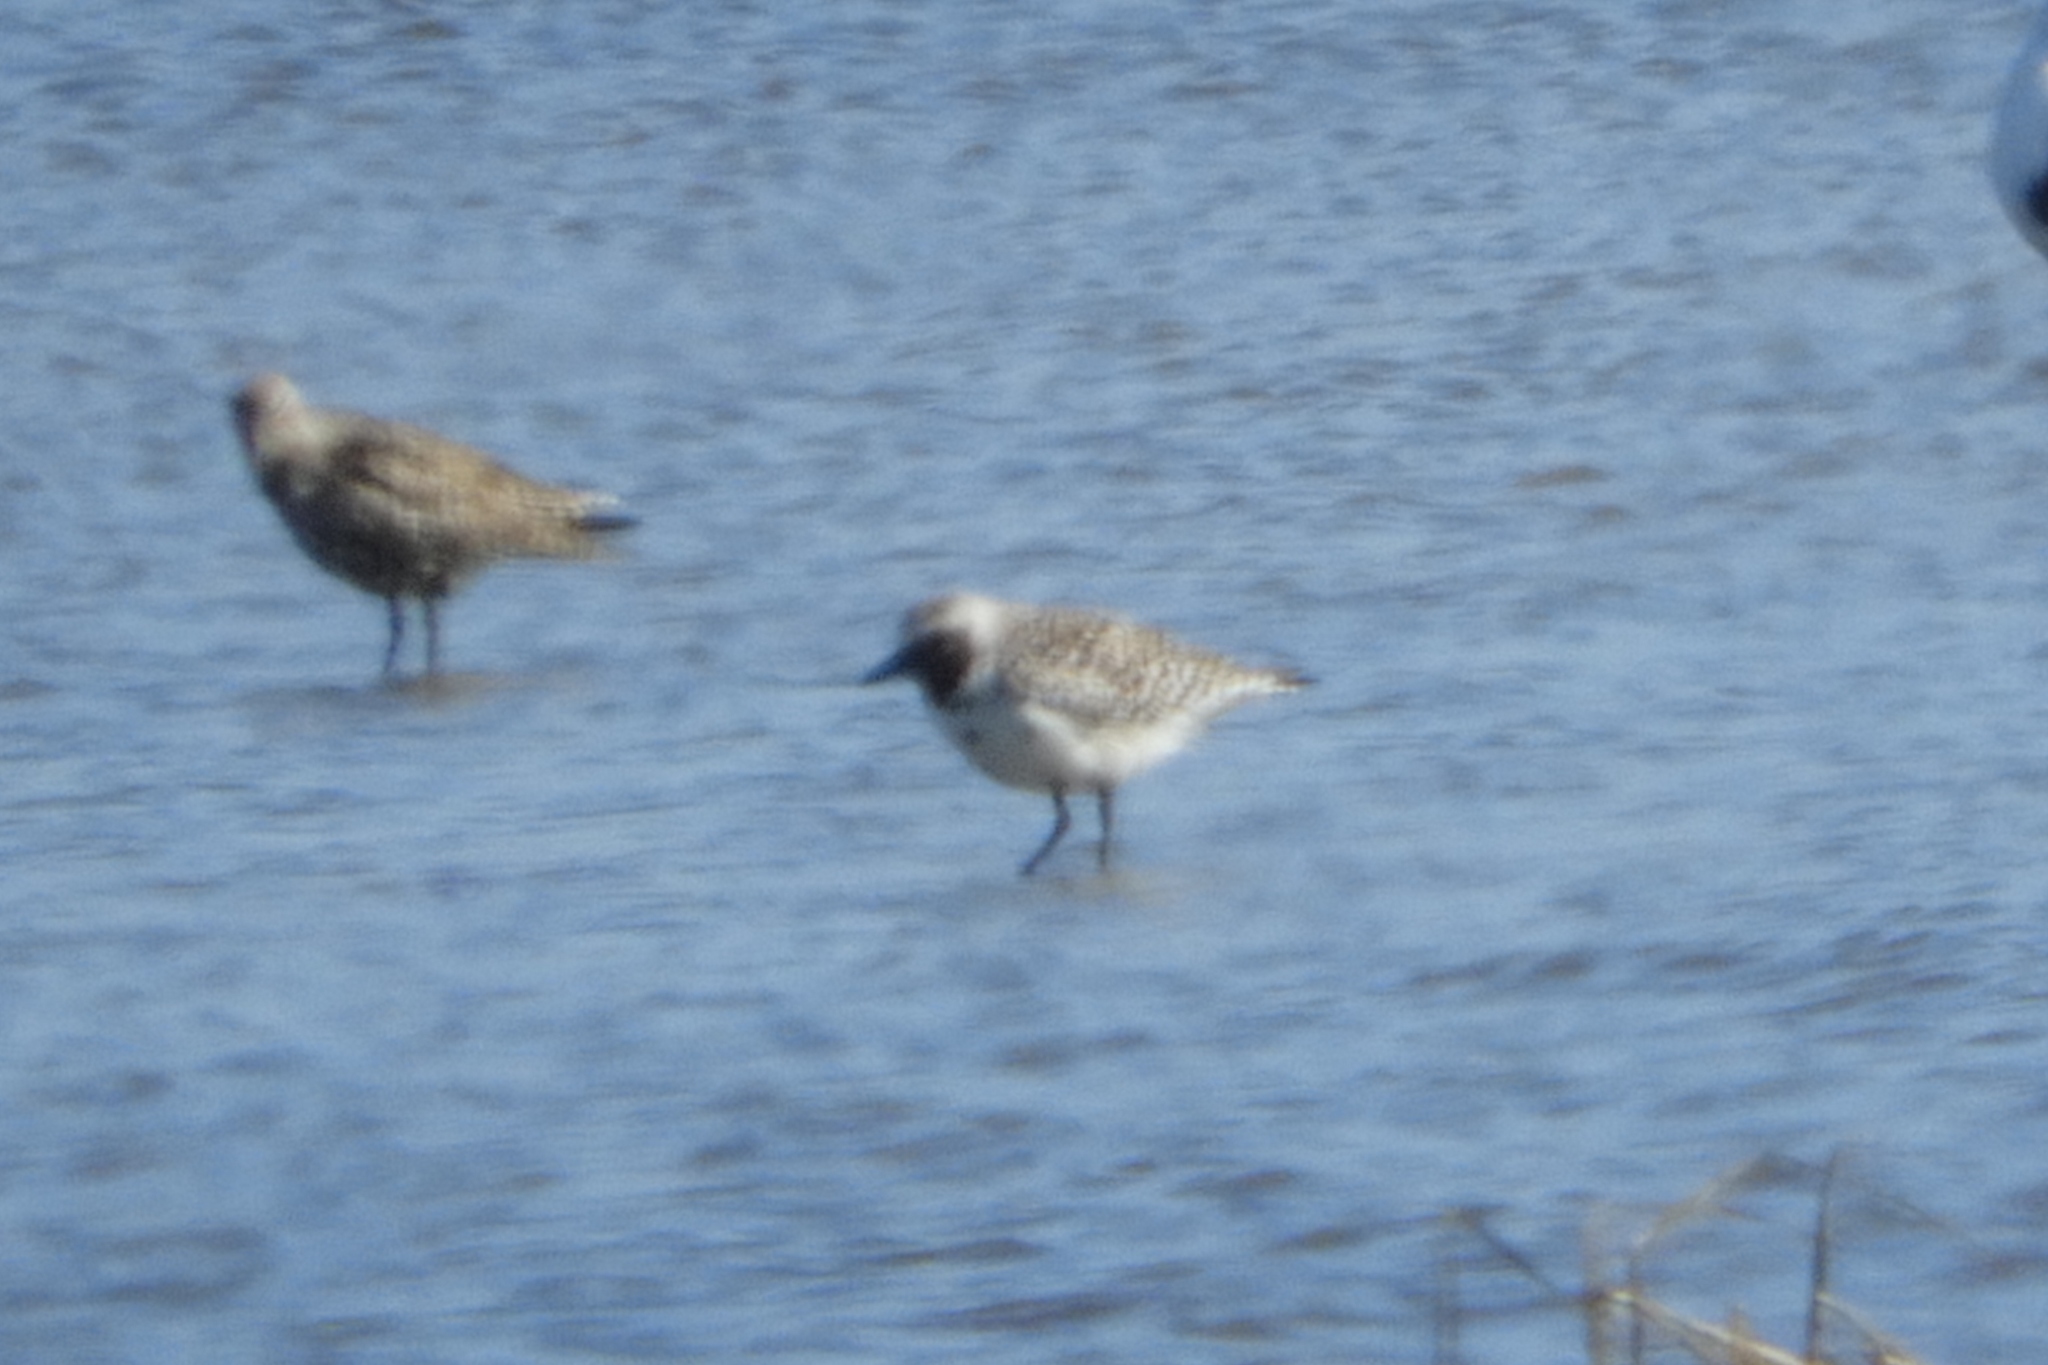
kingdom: Animalia
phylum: Chordata
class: Aves
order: Charadriiformes
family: Charadriidae
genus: Pluvialis
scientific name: Pluvialis squatarola
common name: Grey plover
